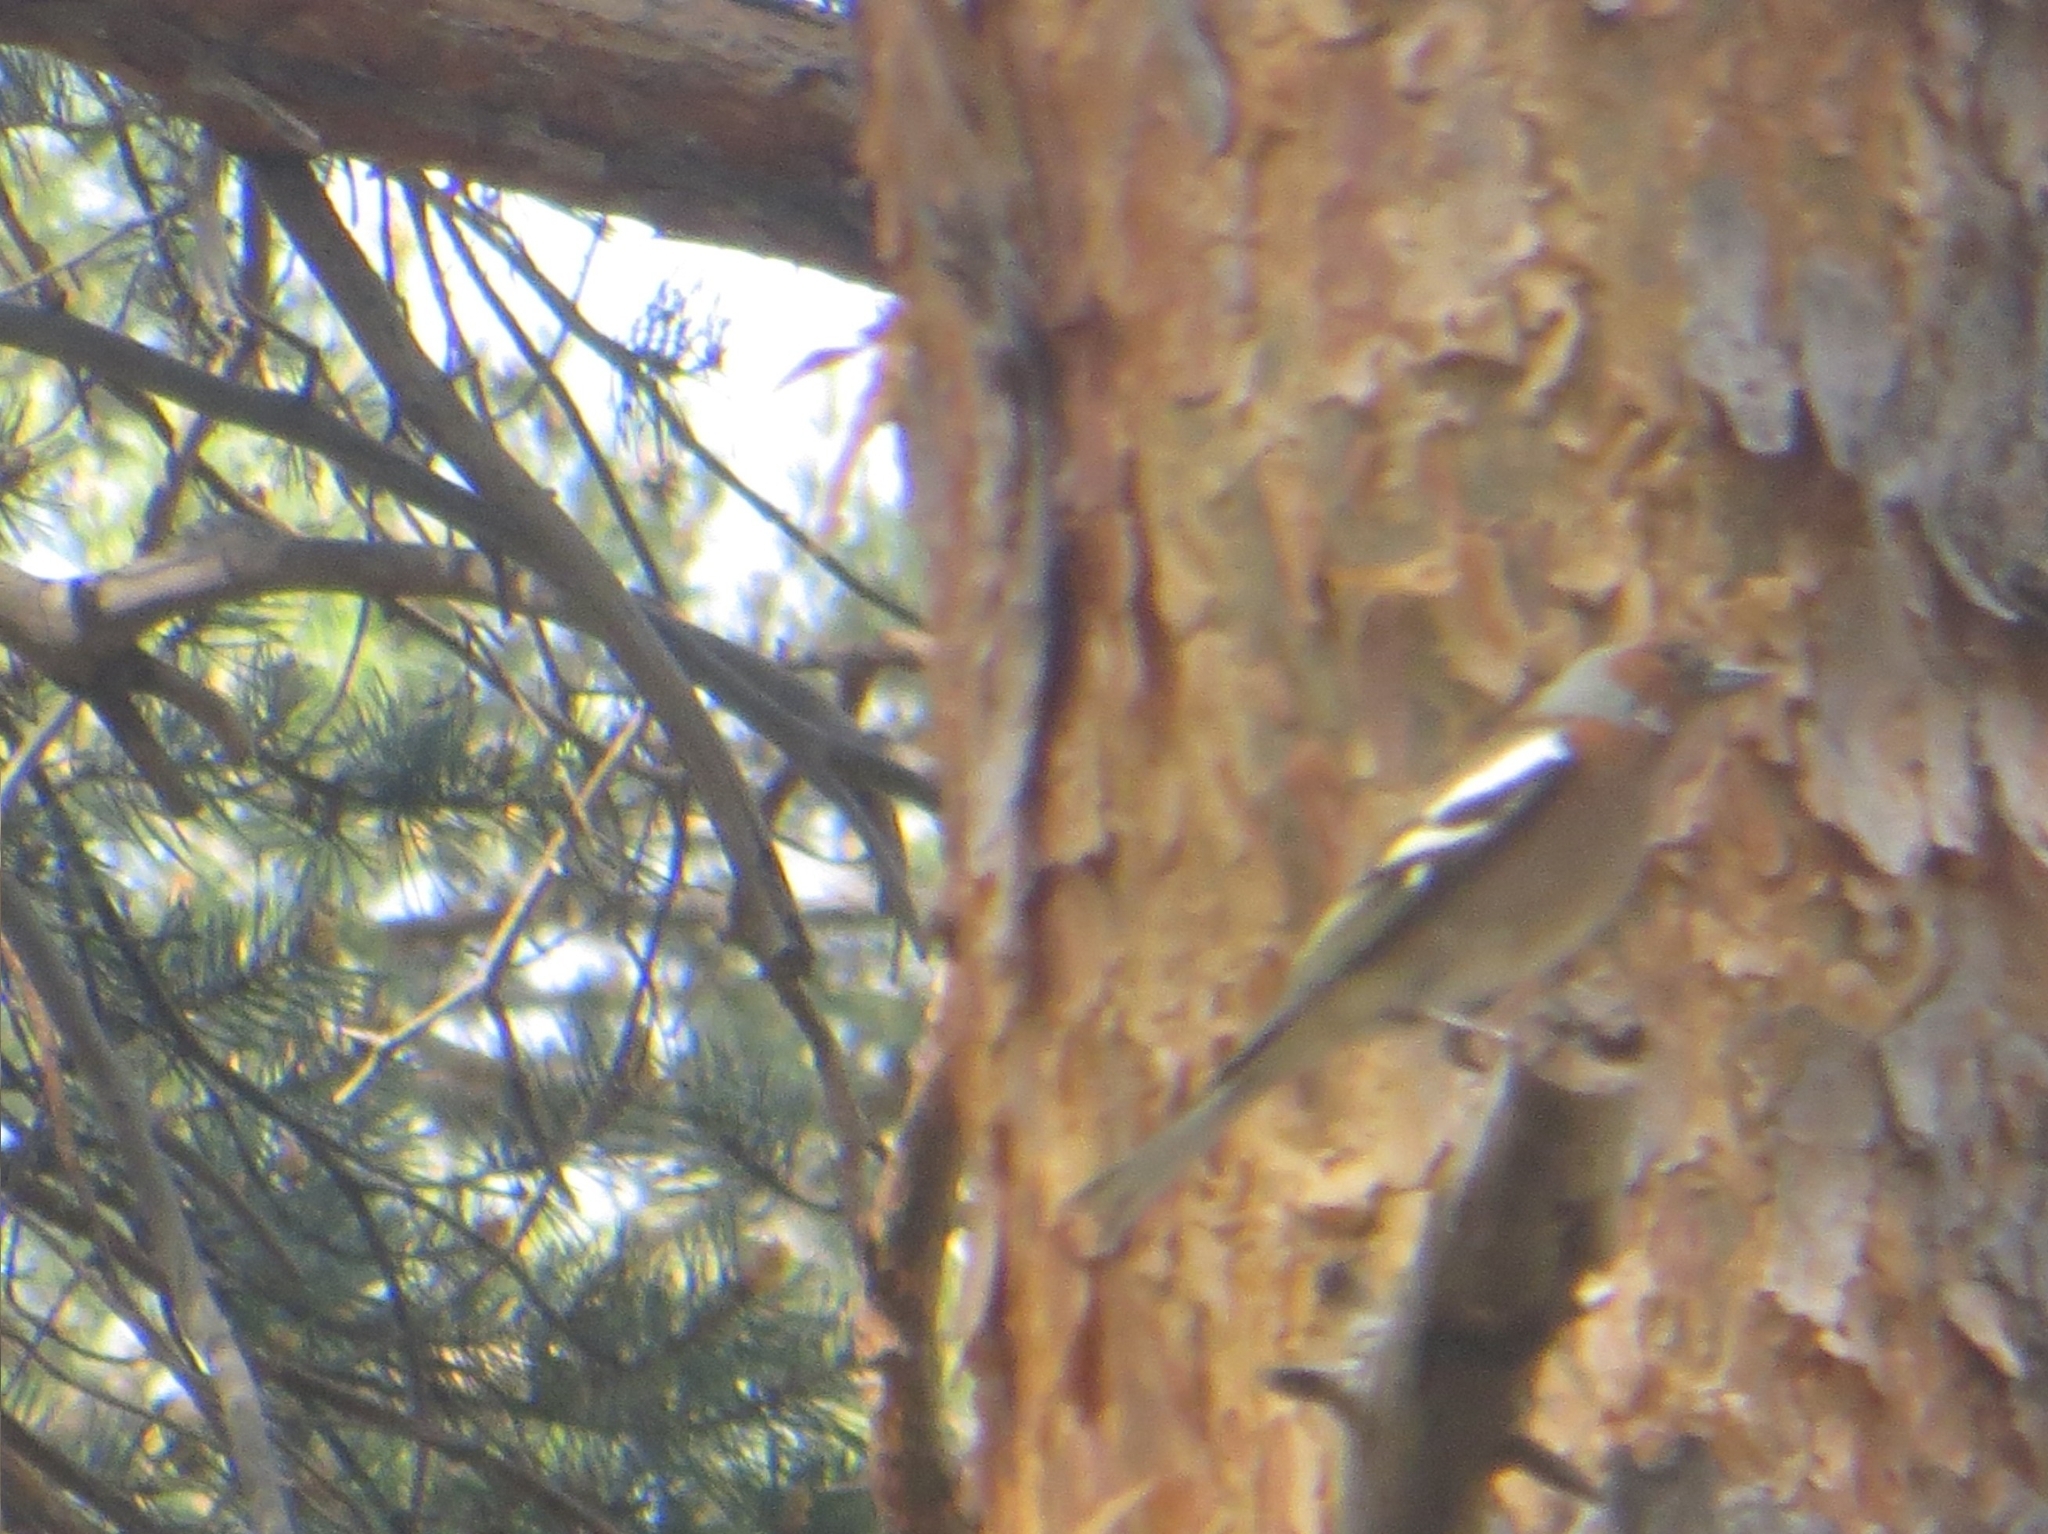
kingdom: Animalia
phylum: Chordata
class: Aves
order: Passeriformes
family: Fringillidae
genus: Fringilla
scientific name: Fringilla coelebs
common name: Common chaffinch
